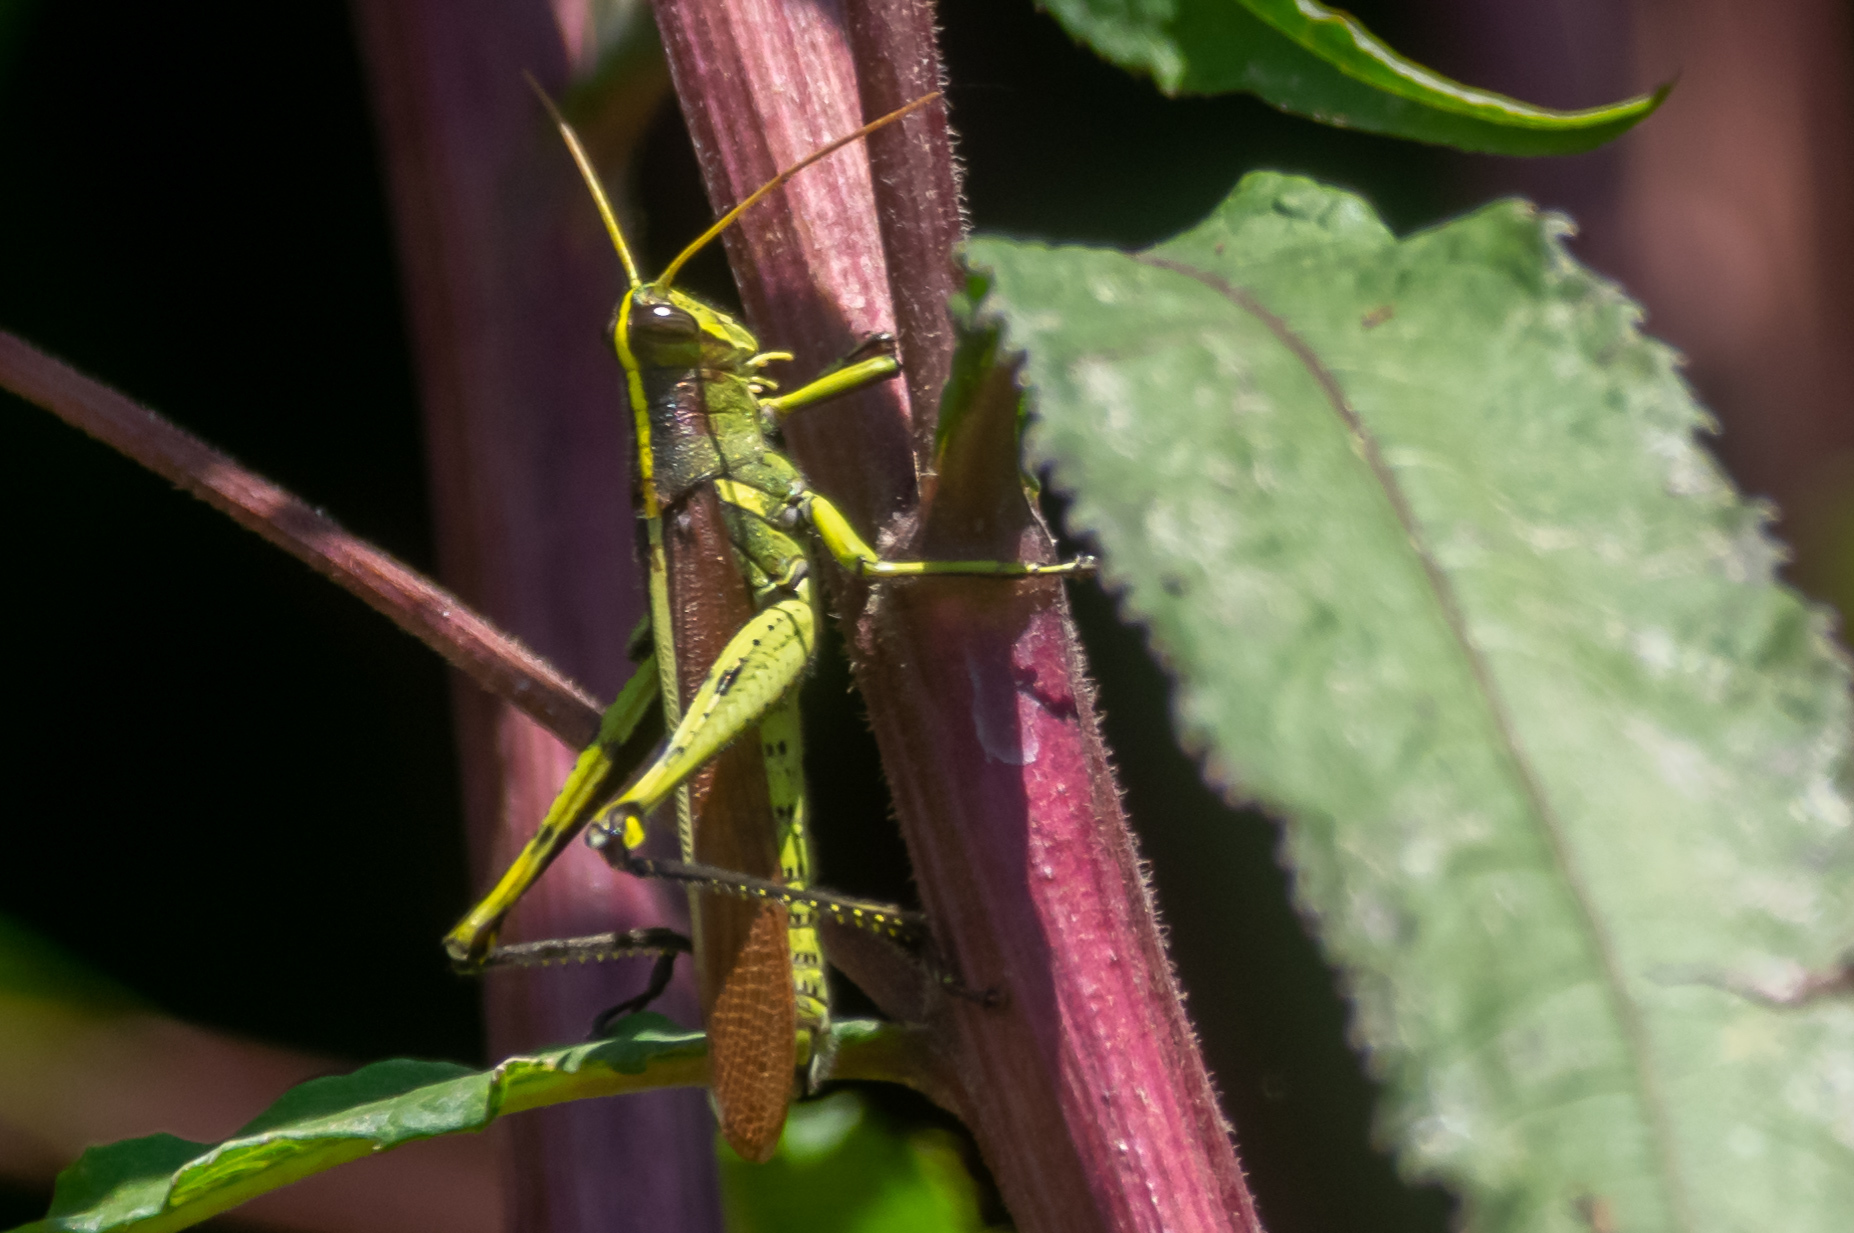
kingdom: Animalia
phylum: Arthropoda
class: Insecta
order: Orthoptera
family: Acrididae
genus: Schistocerca
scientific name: Schistocerca obscura
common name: Obscure bird grasshopper
